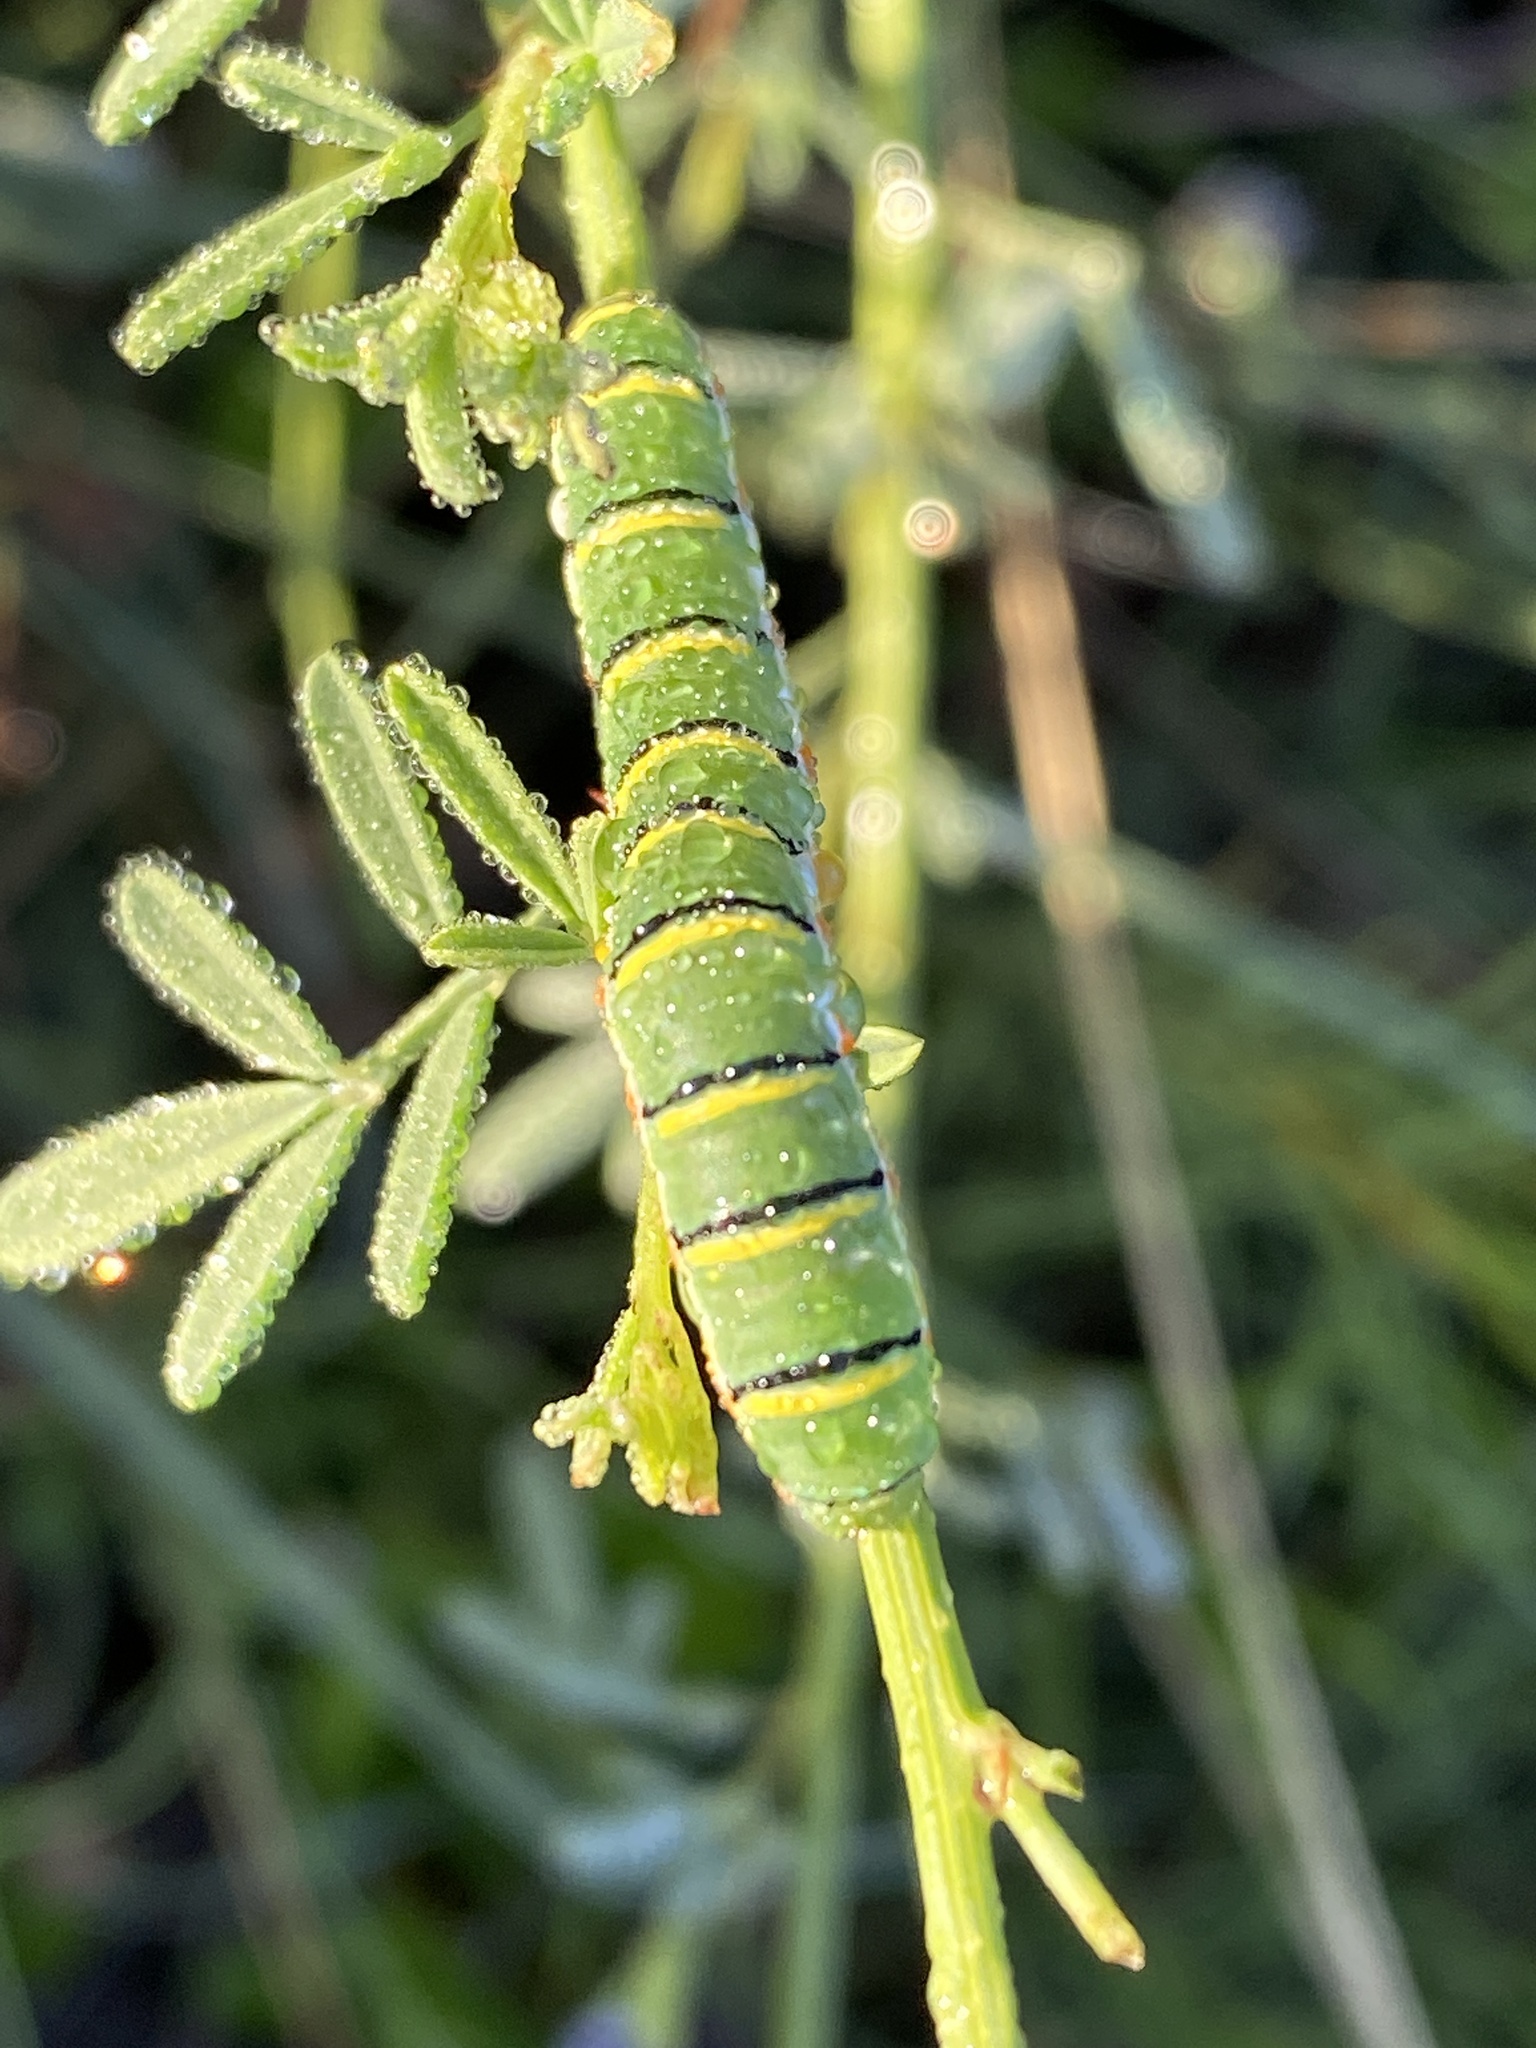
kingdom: Animalia
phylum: Arthropoda
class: Insecta
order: Lepidoptera
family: Pieridae
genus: Zerene
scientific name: Zerene cesonia
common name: Southern dogface
